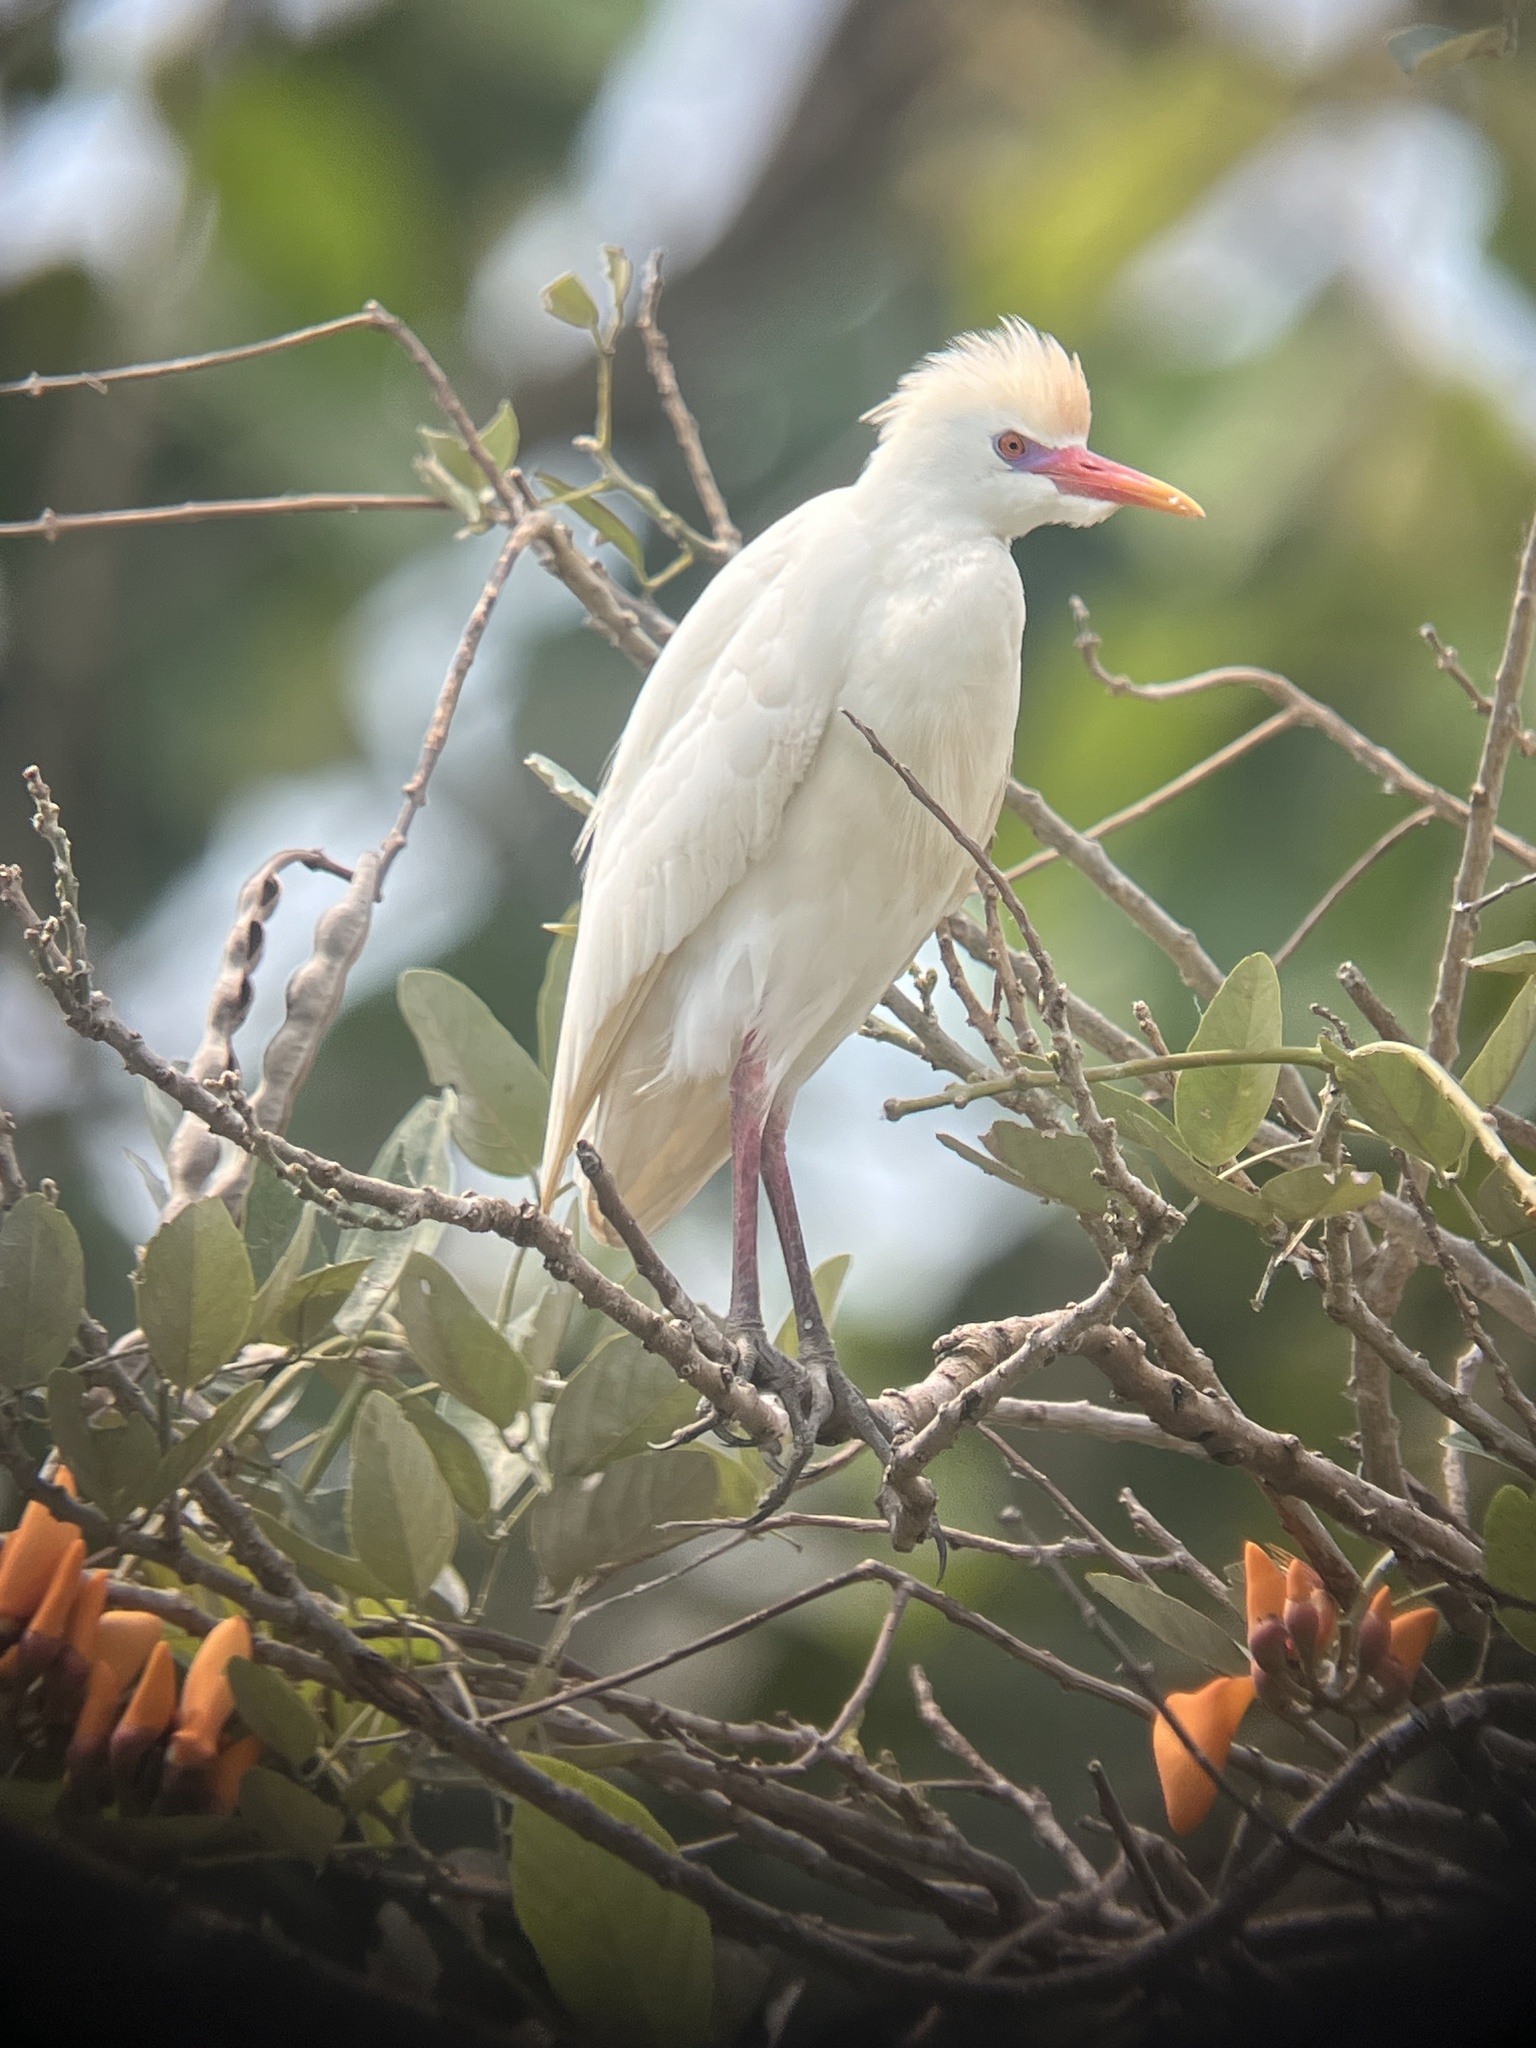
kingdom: Animalia
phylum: Chordata
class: Aves
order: Pelecaniformes
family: Ardeidae
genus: Bubulcus
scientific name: Bubulcus ibis
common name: Cattle egret
